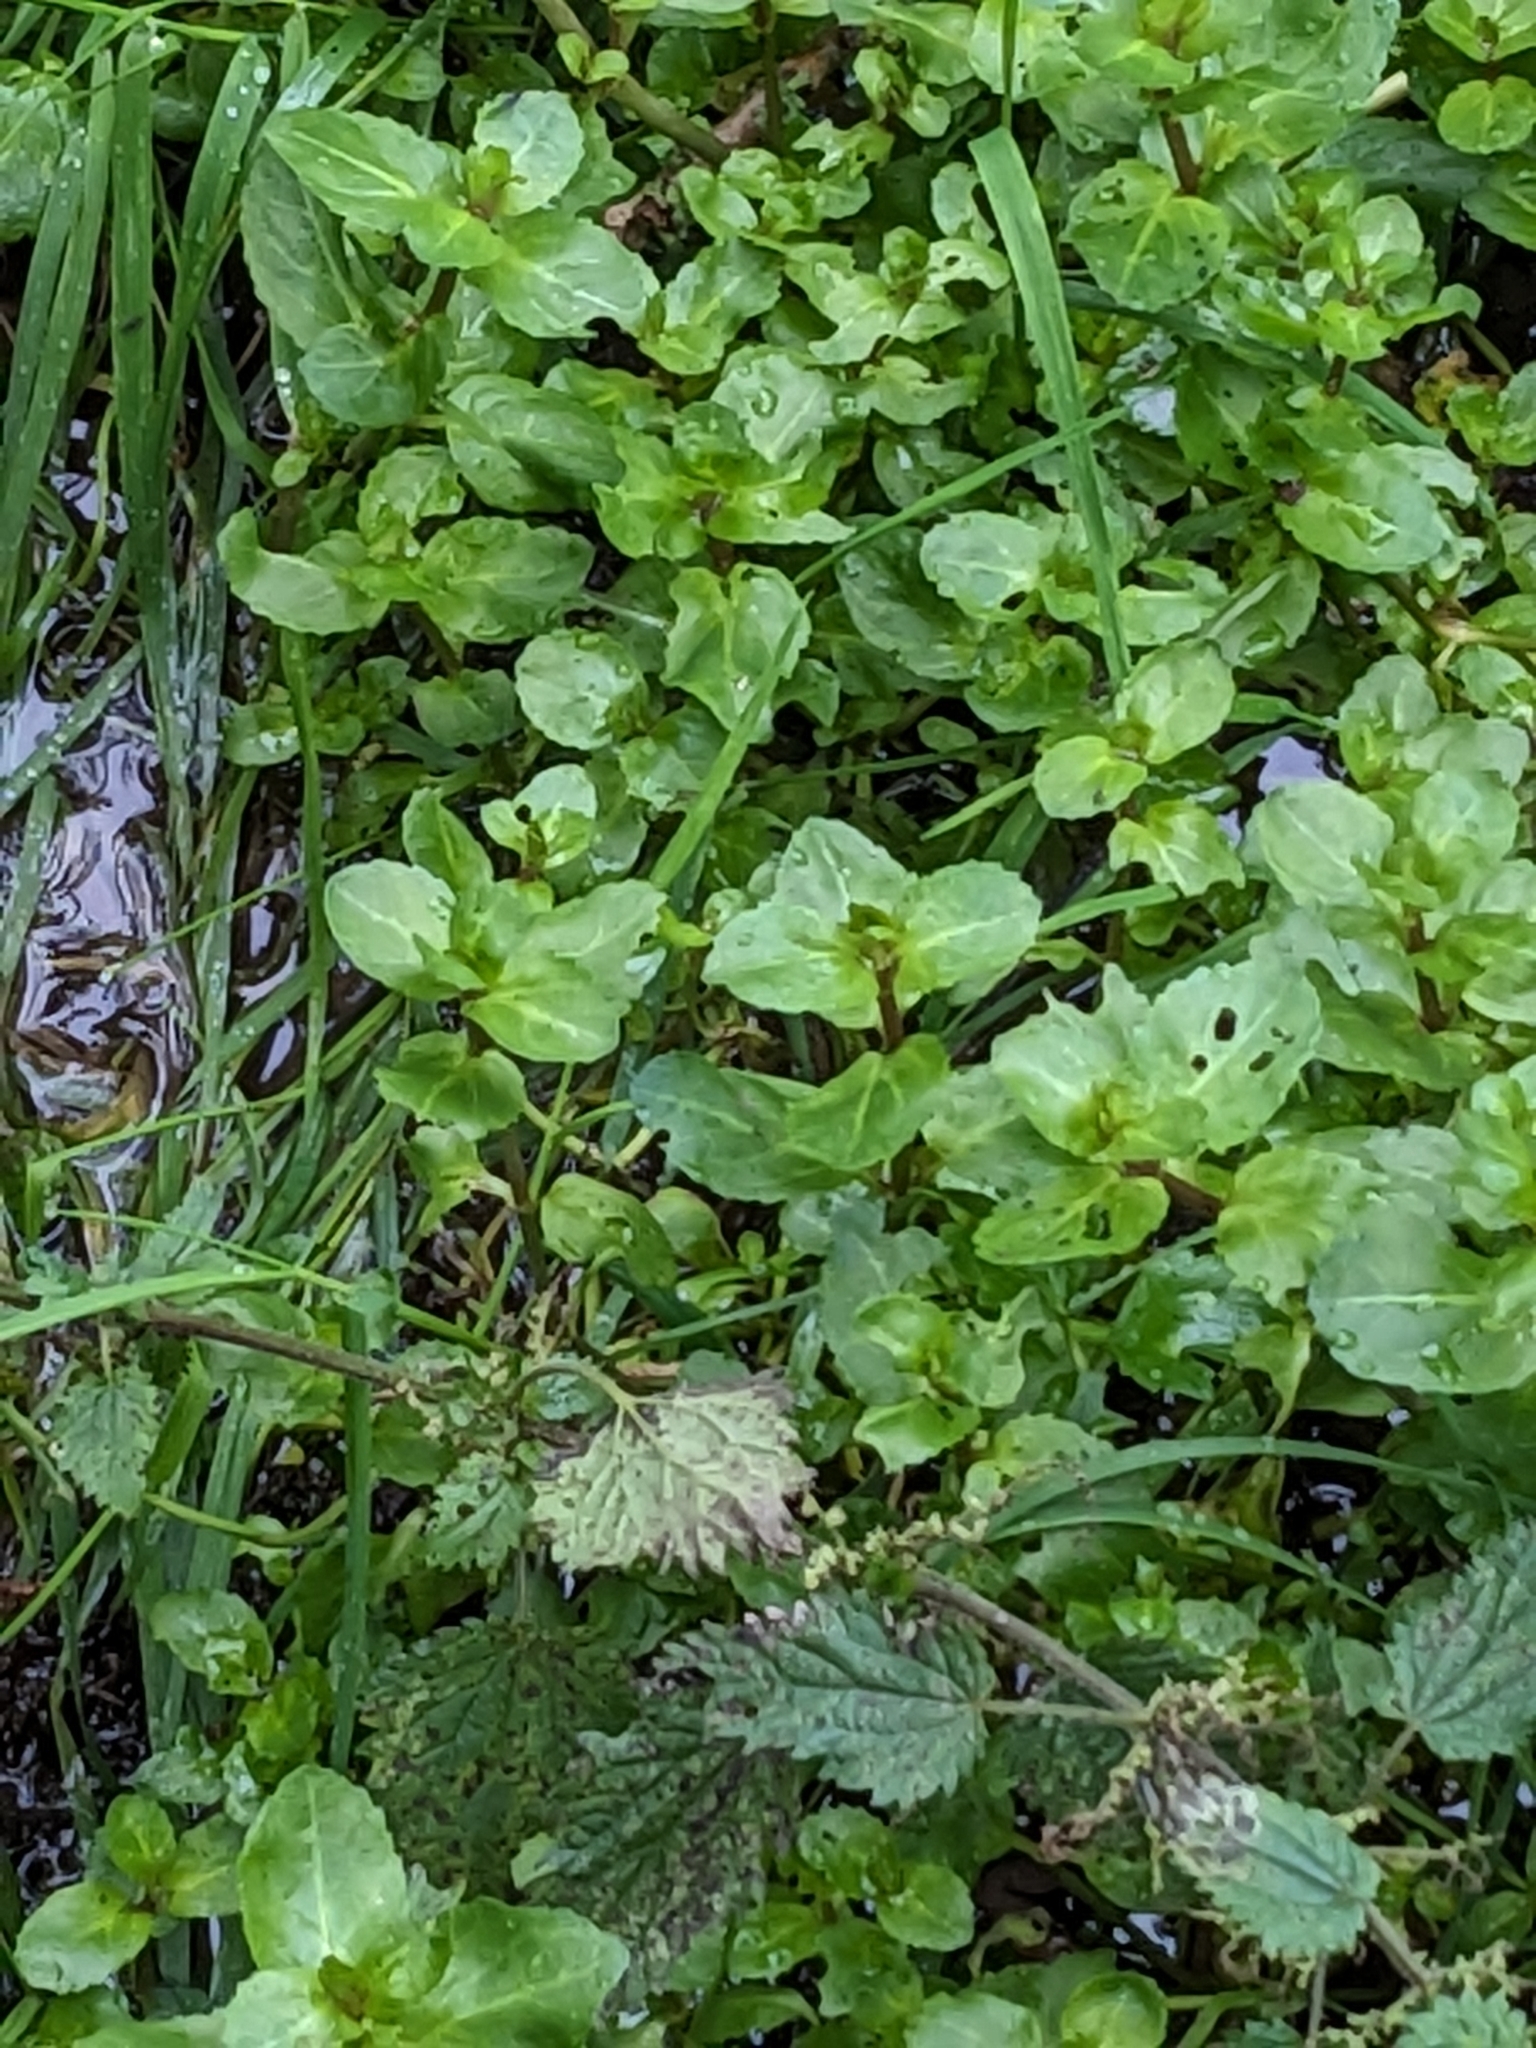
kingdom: Plantae
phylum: Tracheophyta
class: Magnoliopsida
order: Lamiales
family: Plantaginaceae
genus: Veronica
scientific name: Veronica beccabunga
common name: Brooklime
